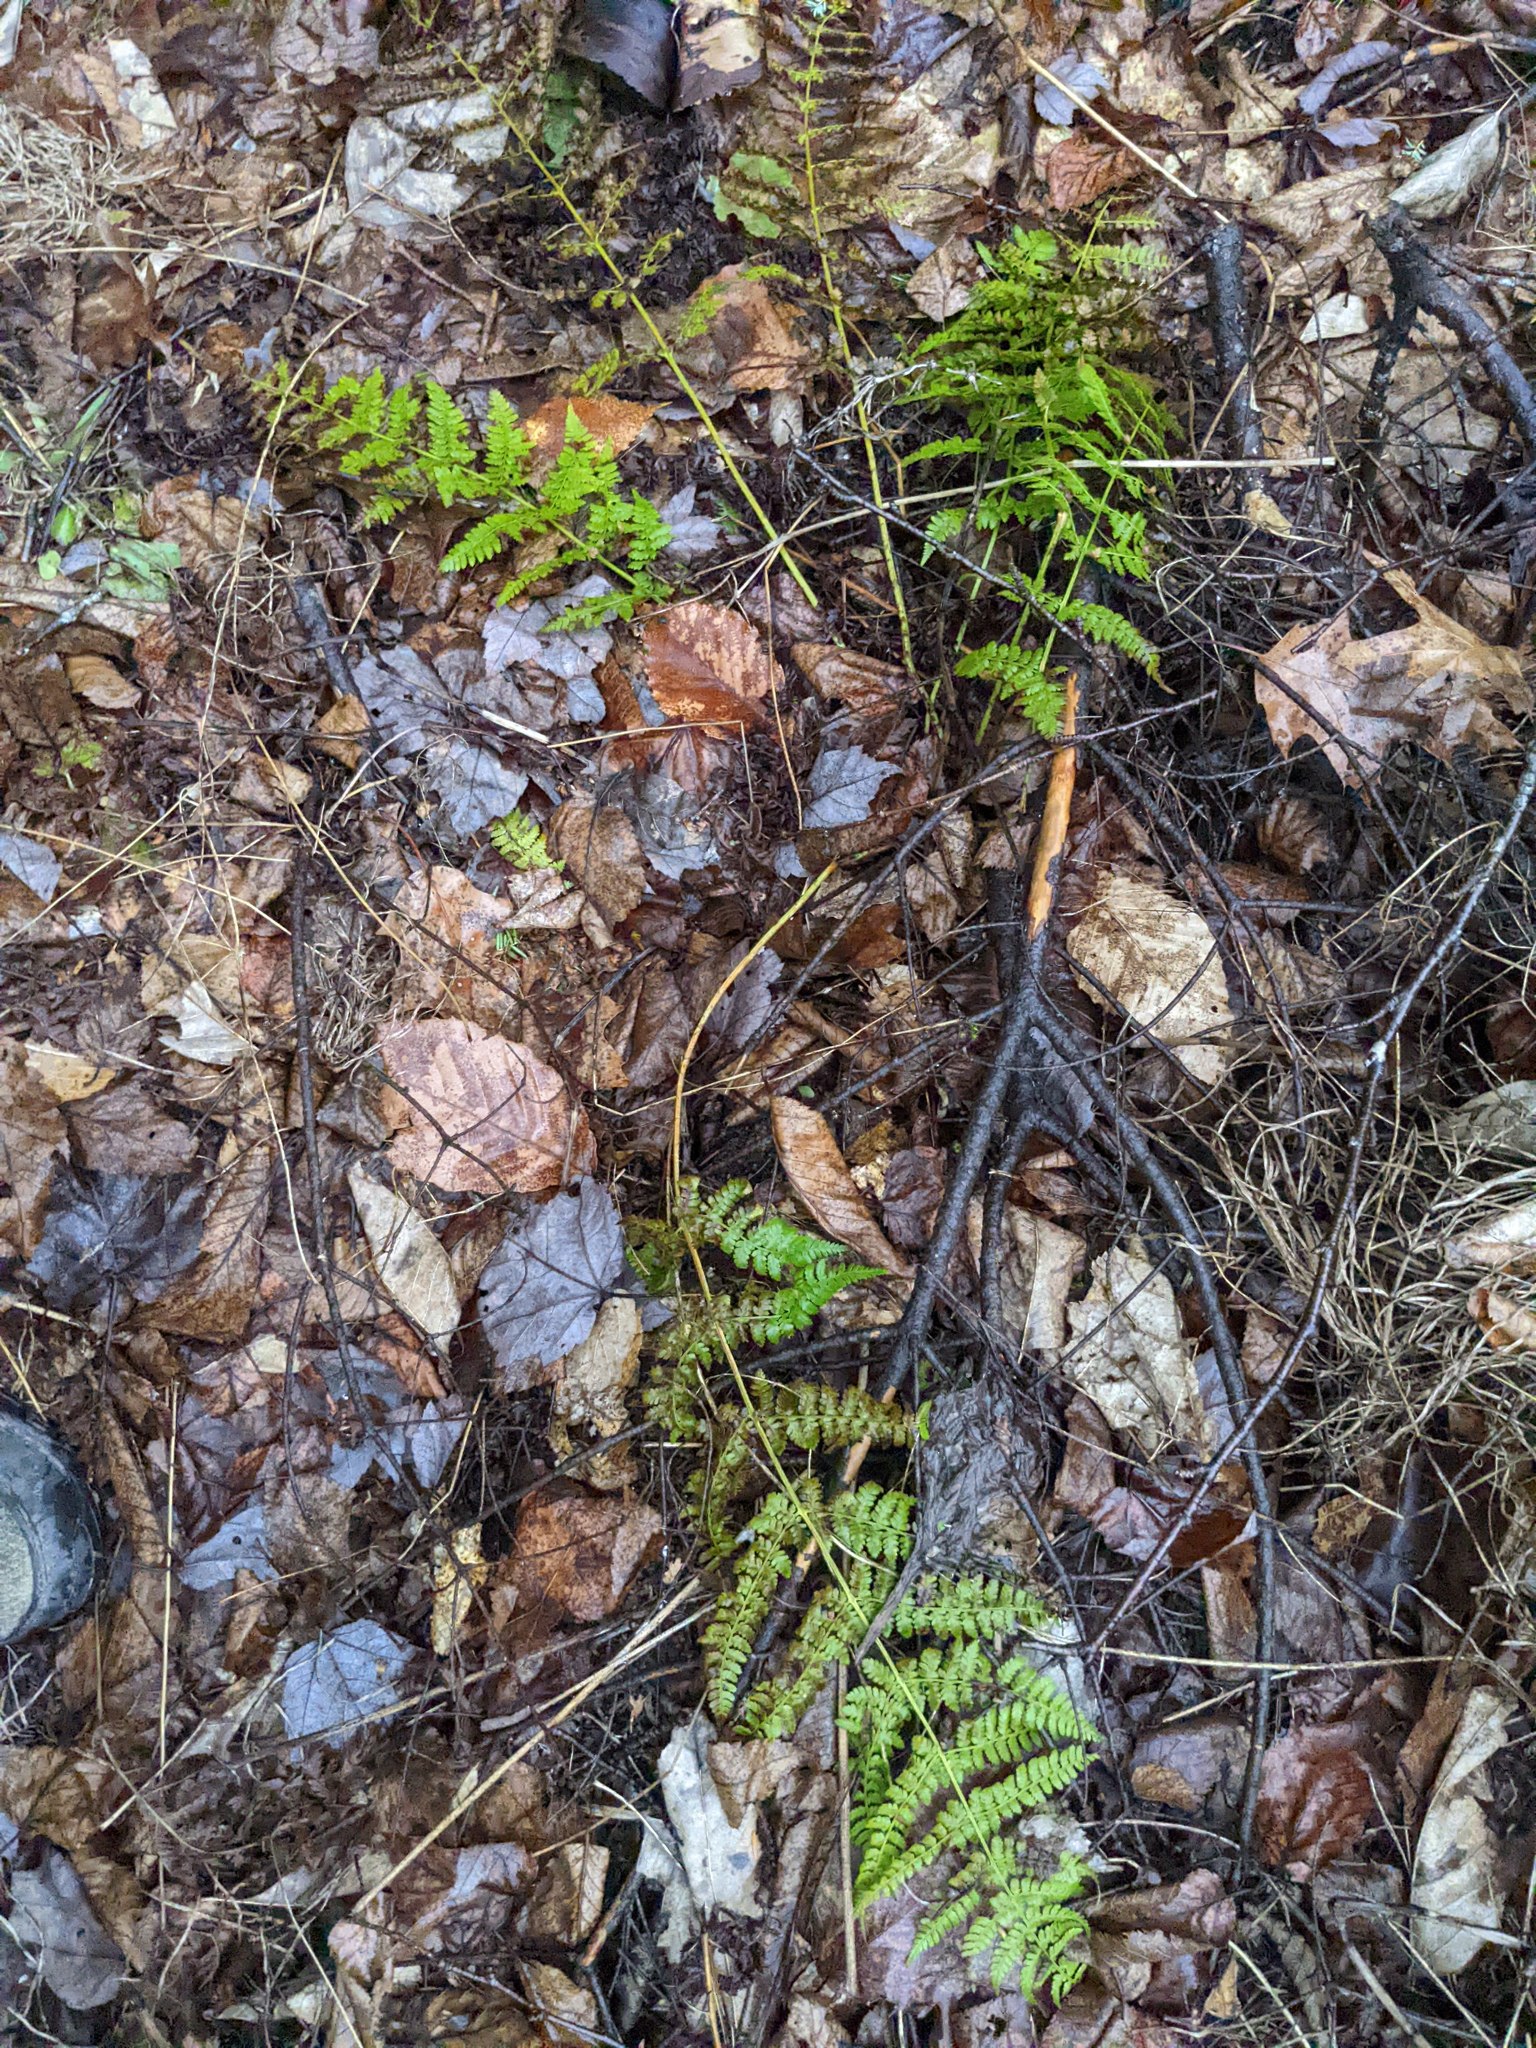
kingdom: Plantae
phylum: Tracheophyta
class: Polypodiopsida
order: Polypodiales
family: Dryopteridaceae
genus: Dryopteris
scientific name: Dryopteris intermedia
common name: Evergreen wood fern
